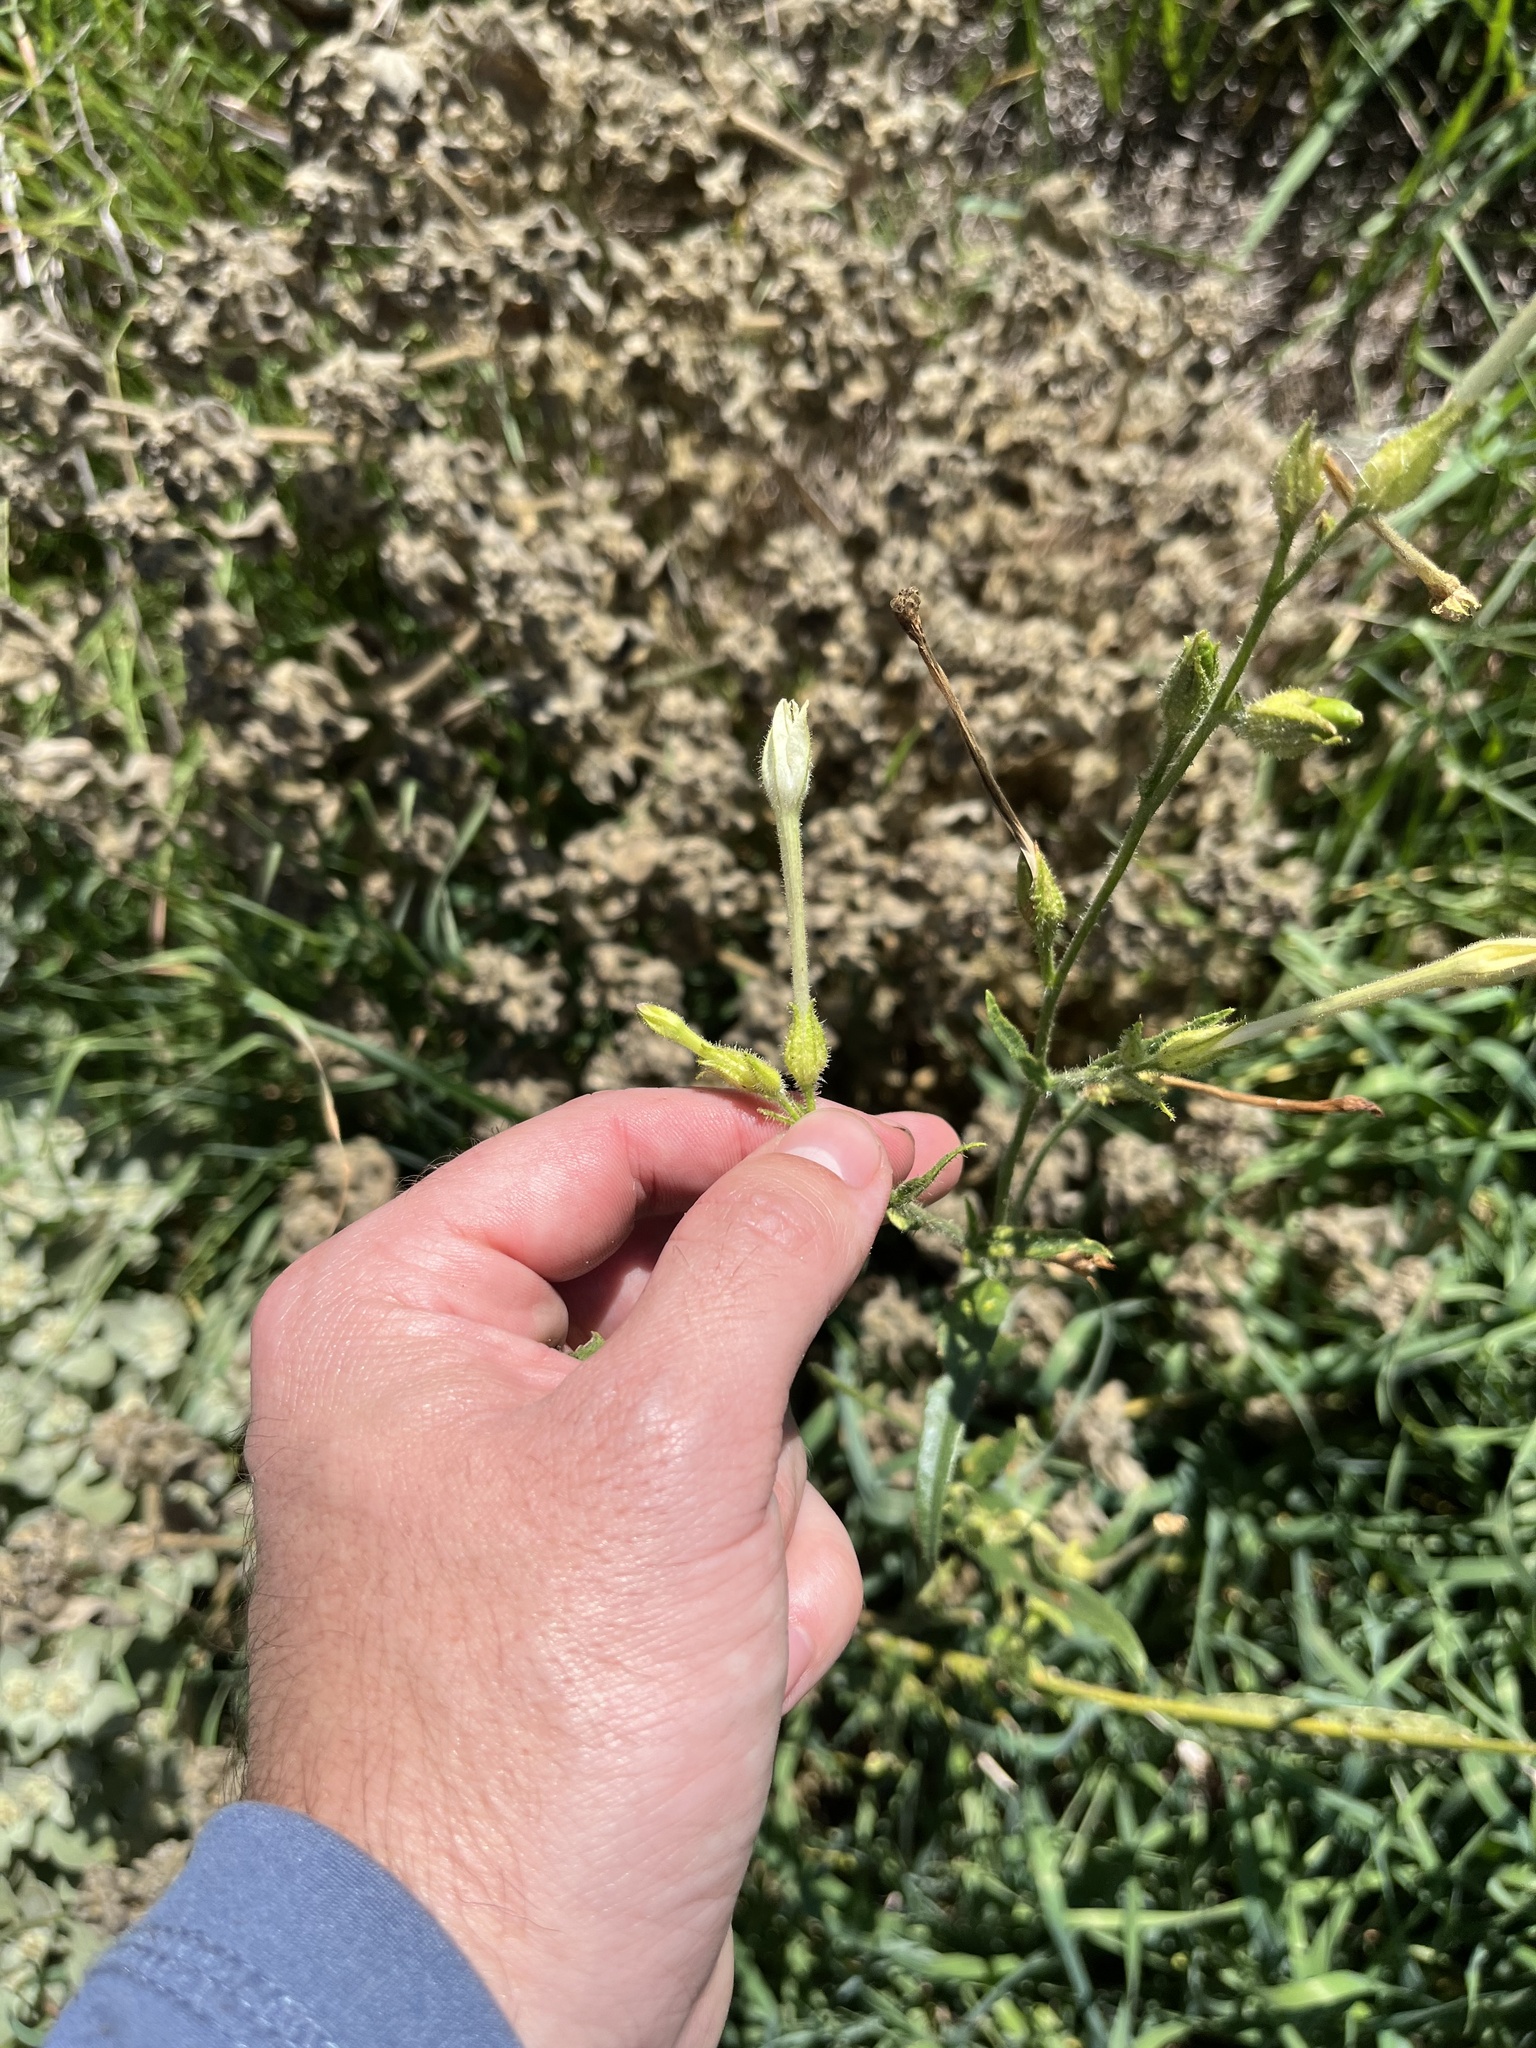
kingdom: Plantae
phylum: Tracheophyta
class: Magnoliopsida
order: Solanales
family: Solanaceae
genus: Nicotiana
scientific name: Nicotiana quadrivalvis
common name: Indian tobacco
